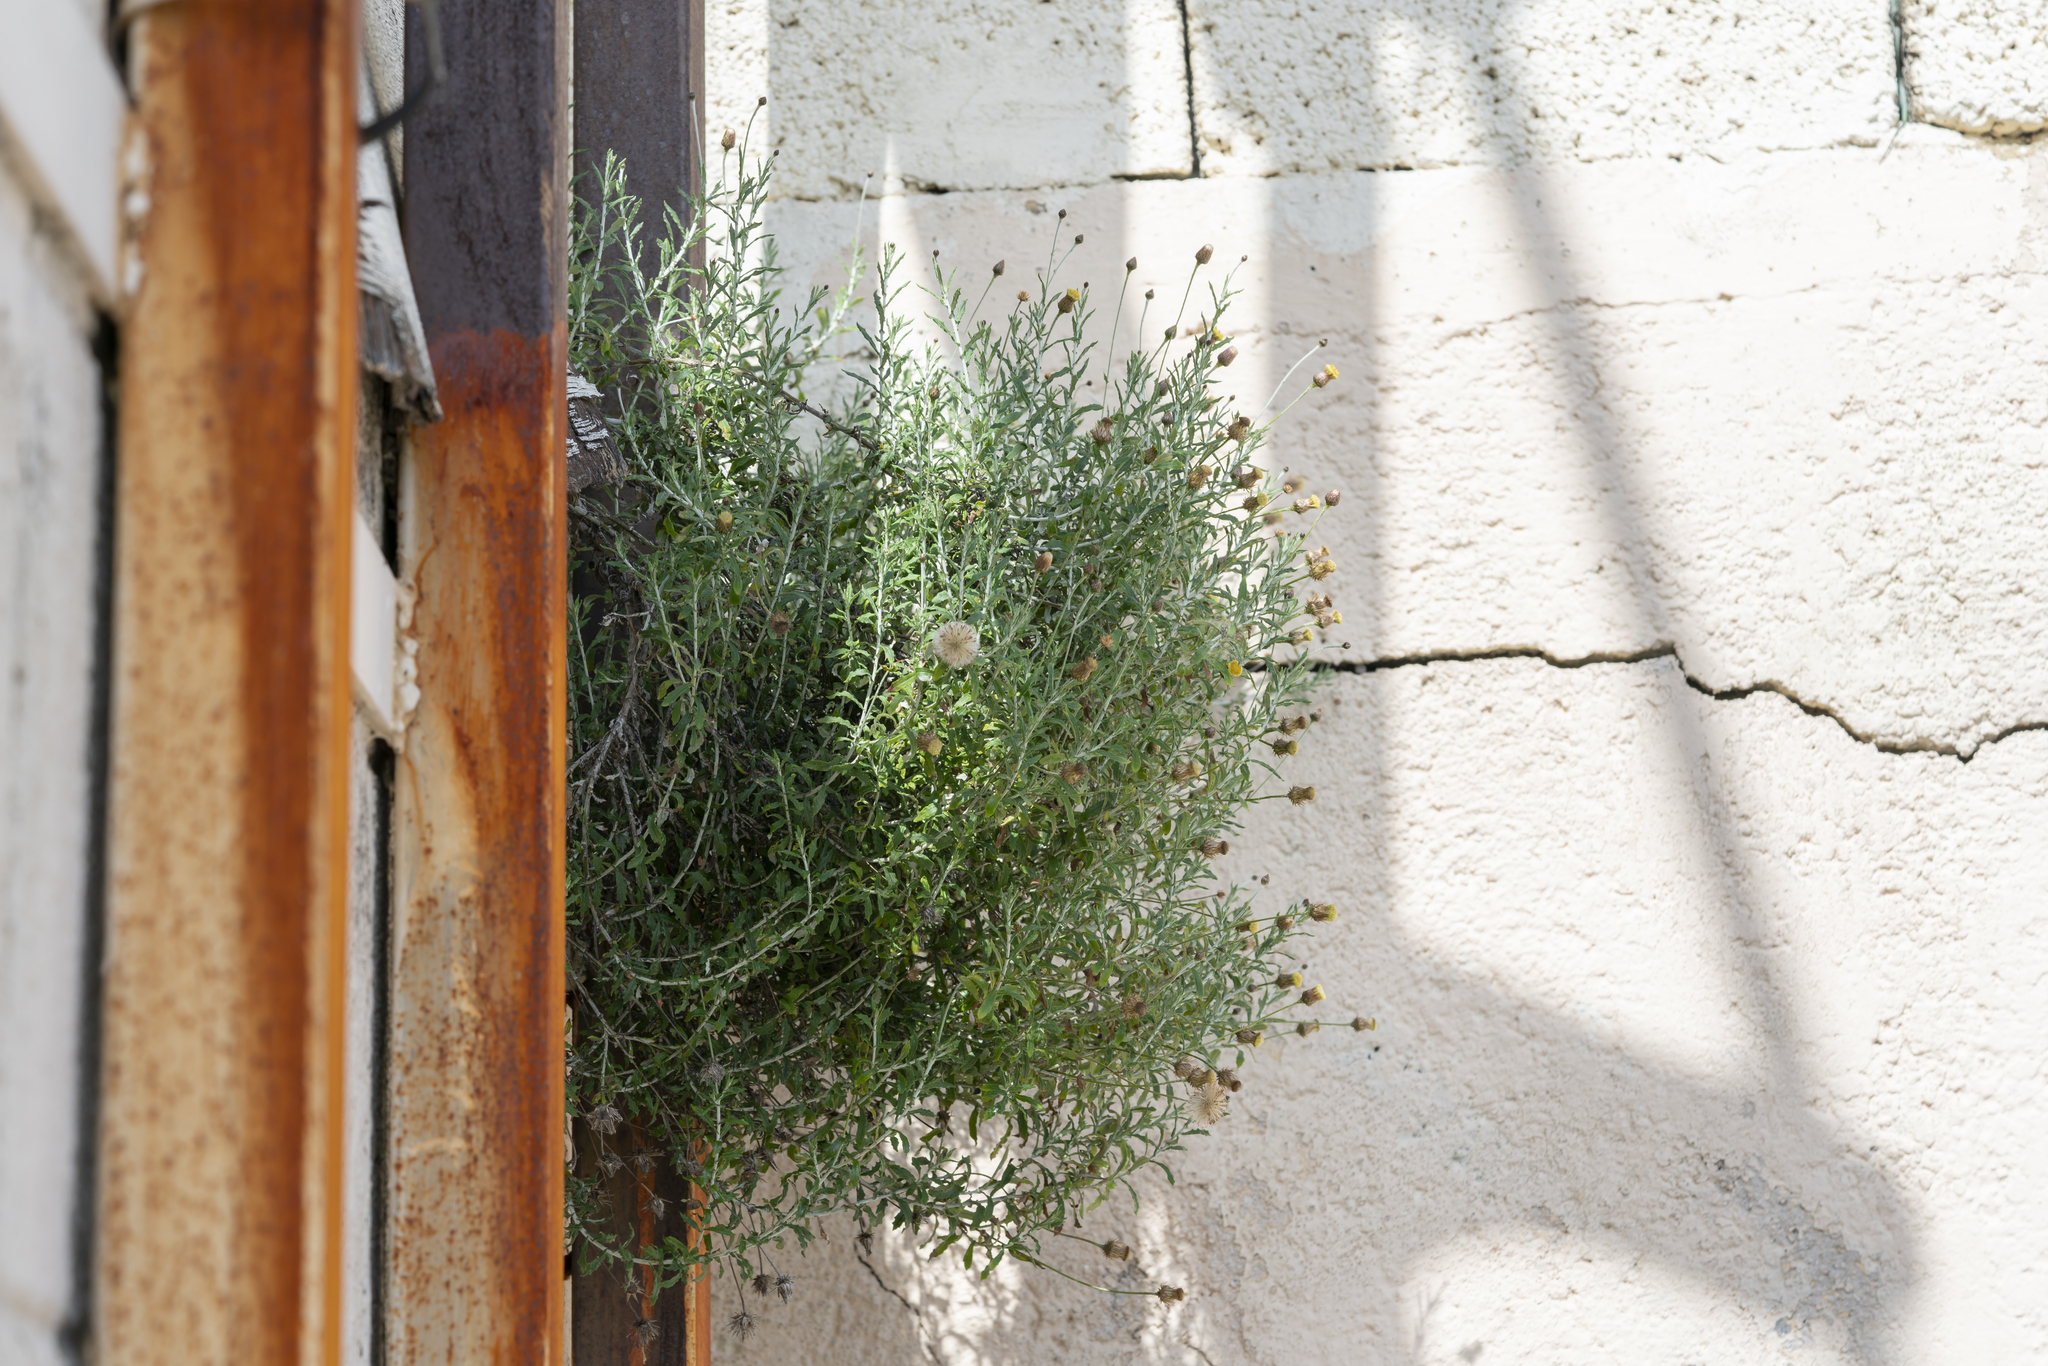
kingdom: Plantae
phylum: Tracheophyta
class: Magnoliopsida
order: Asterales
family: Asteraceae
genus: Phagnalon
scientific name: Phagnalon graecum
